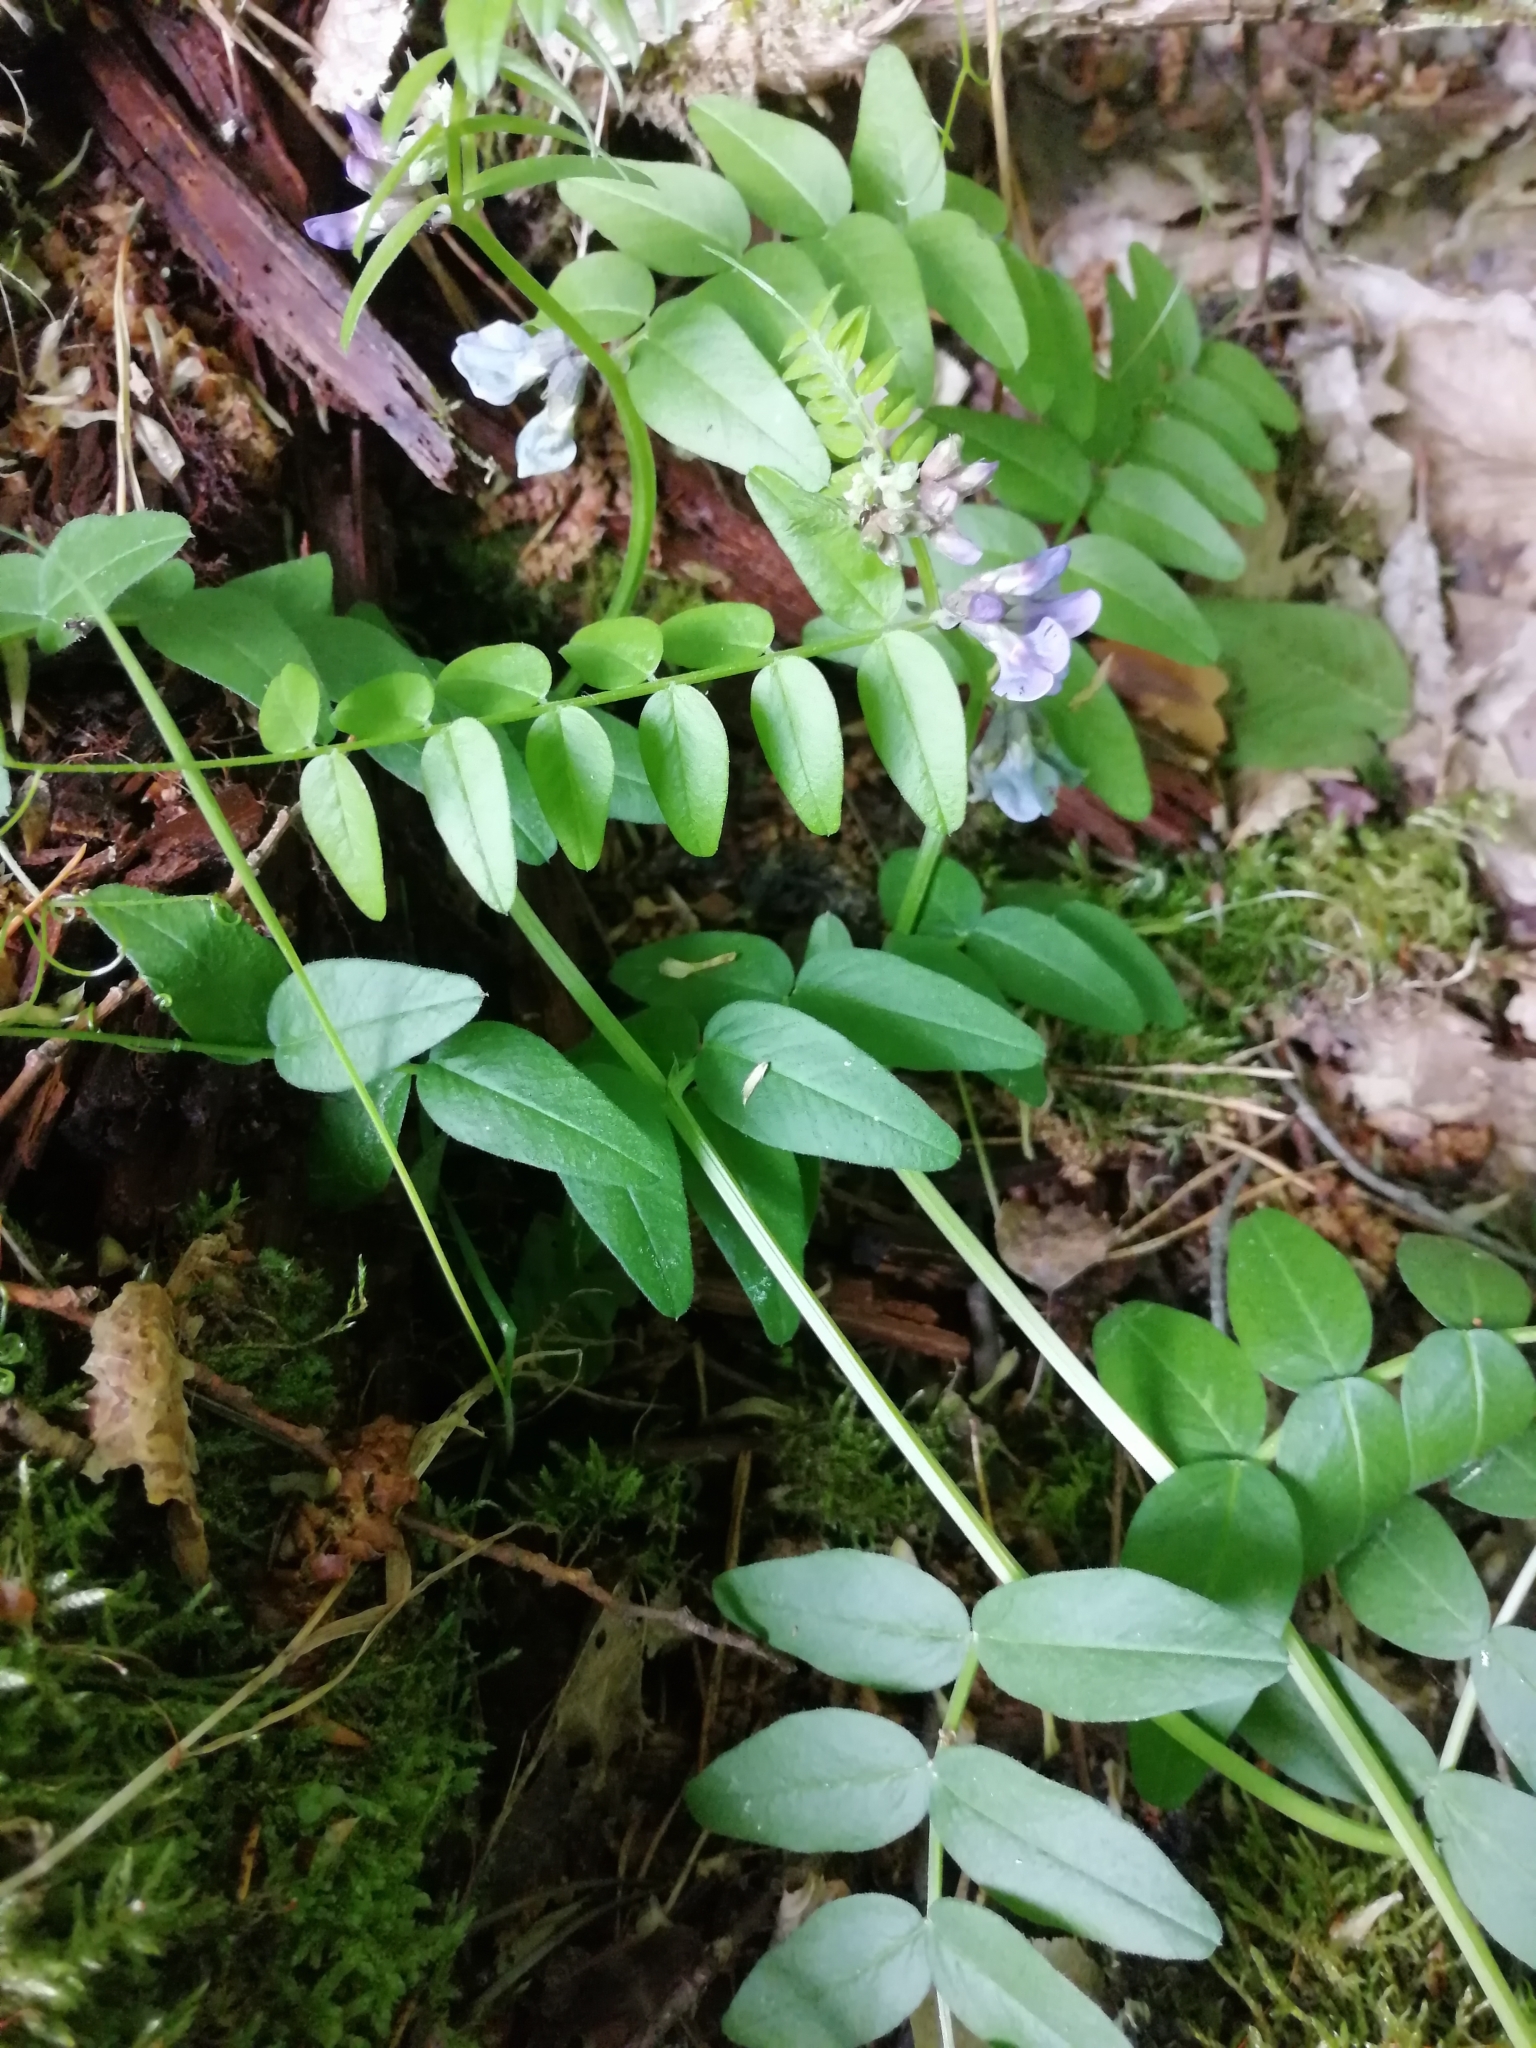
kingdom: Plantae
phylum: Tracheophyta
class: Magnoliopsida
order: Fabales
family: Fabaceae
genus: Vicia
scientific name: Vicia sepium
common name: Bush vetch
